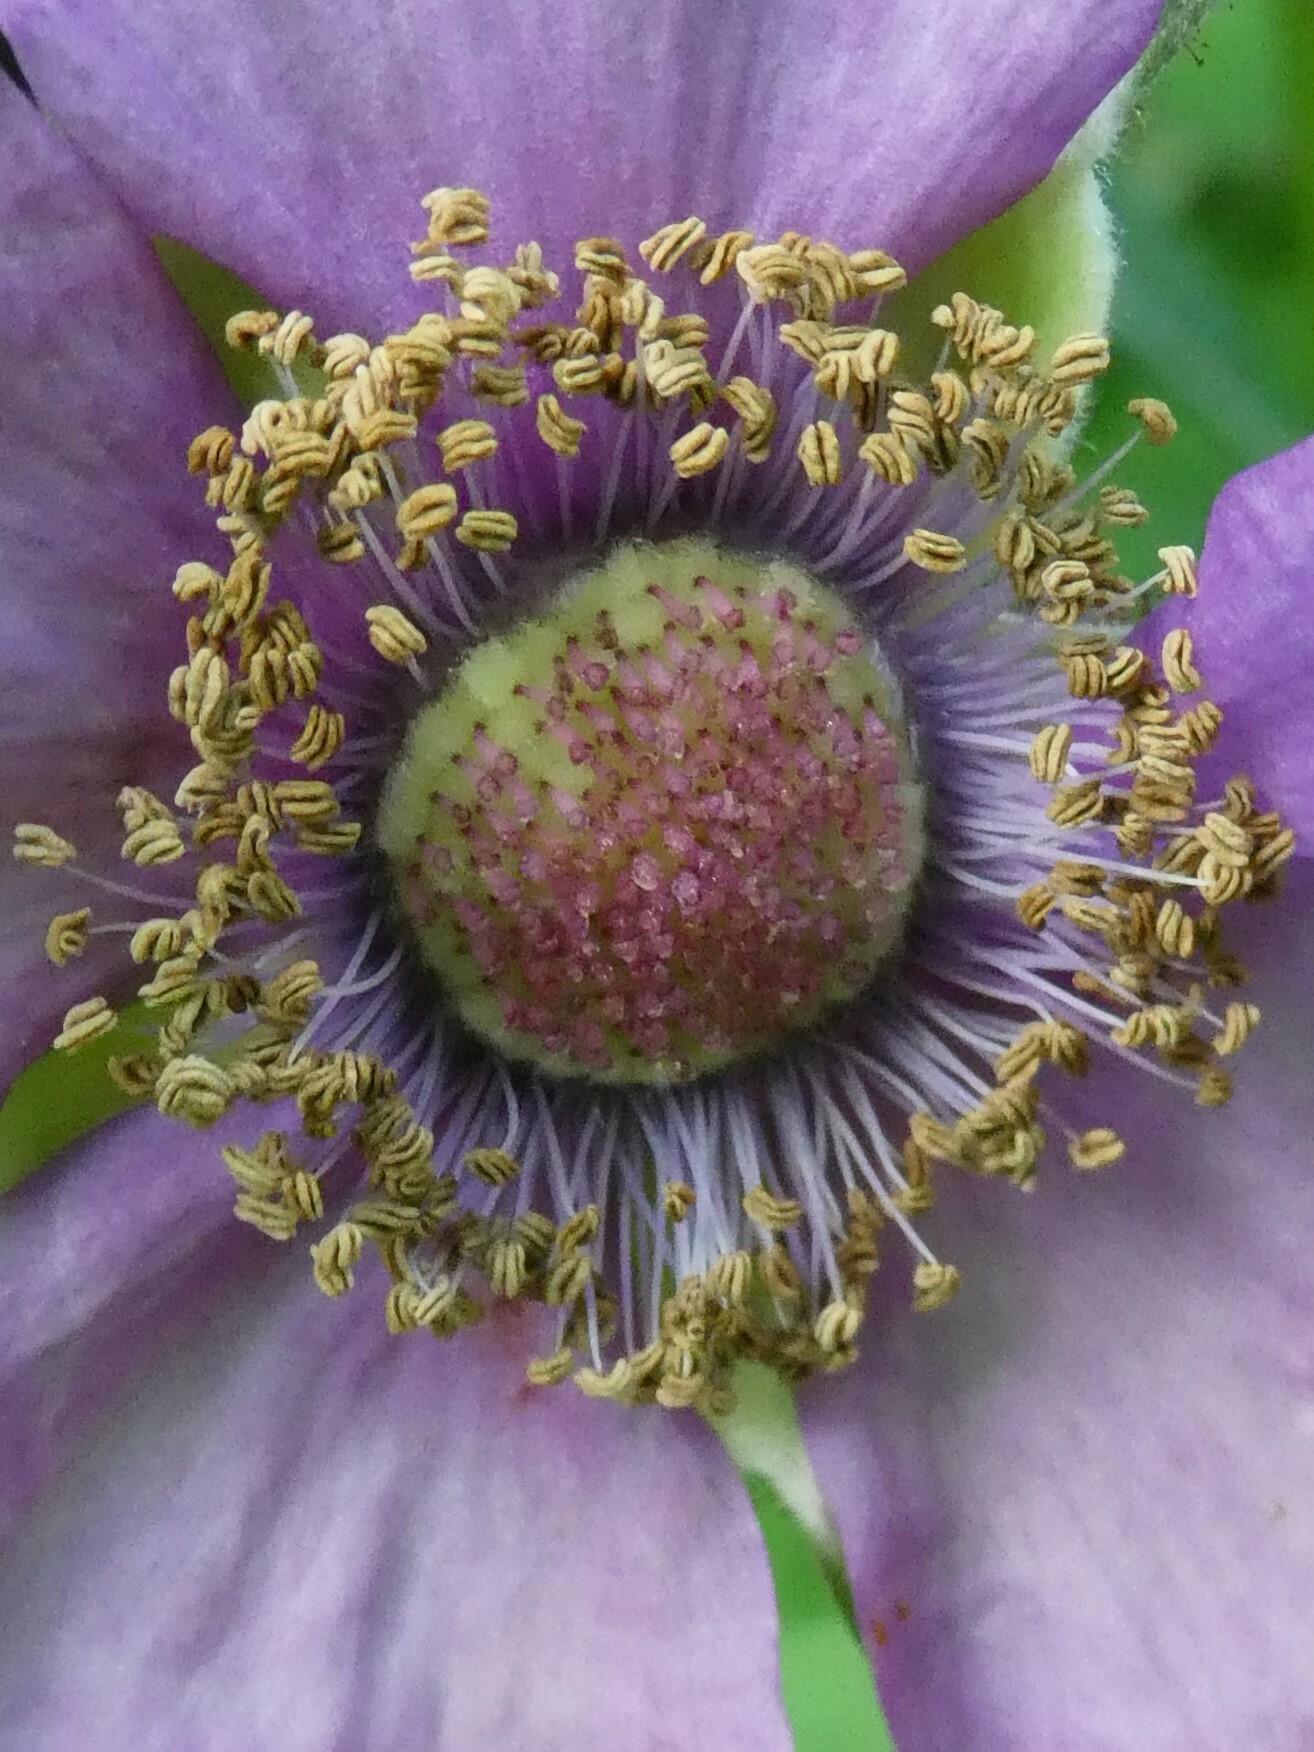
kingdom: Plantae
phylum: Tracheophyta
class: Magnoliopsida
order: Rosales
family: Rosaceae
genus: Rubus
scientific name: Rubus odoratus
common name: Purple-flowered raspberry
